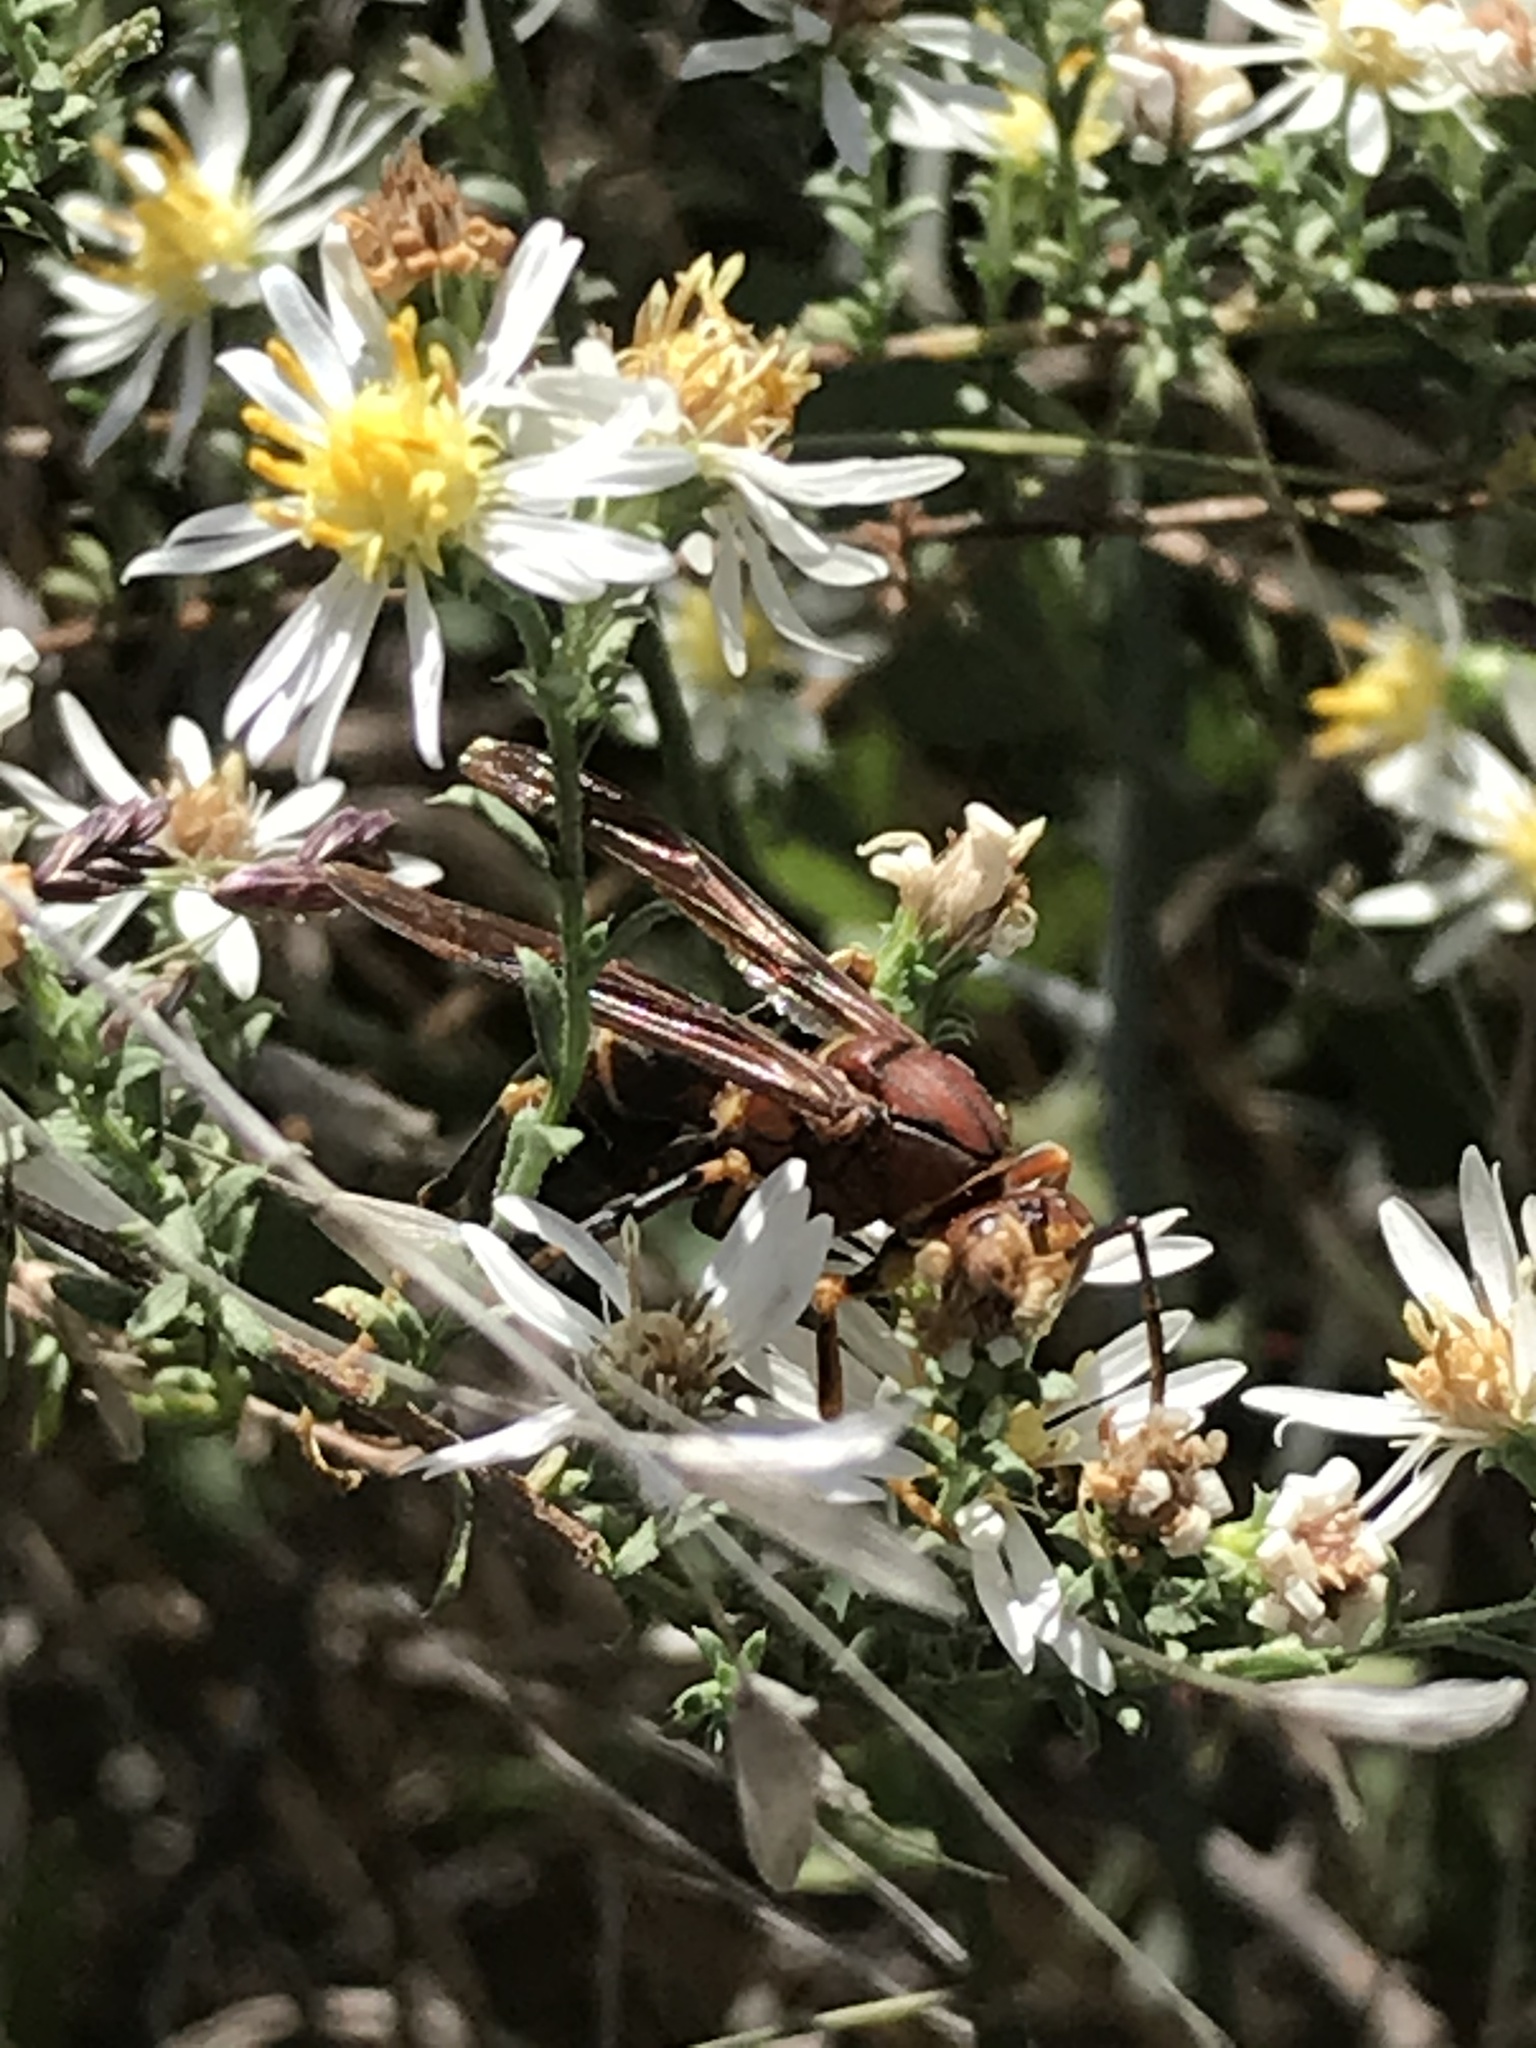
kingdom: Animalia
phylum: Arthropoda
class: Insecta
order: Hymenoptera
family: Eumenidae
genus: Polistes
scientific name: Polistes metricus
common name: Metric paper wasp
